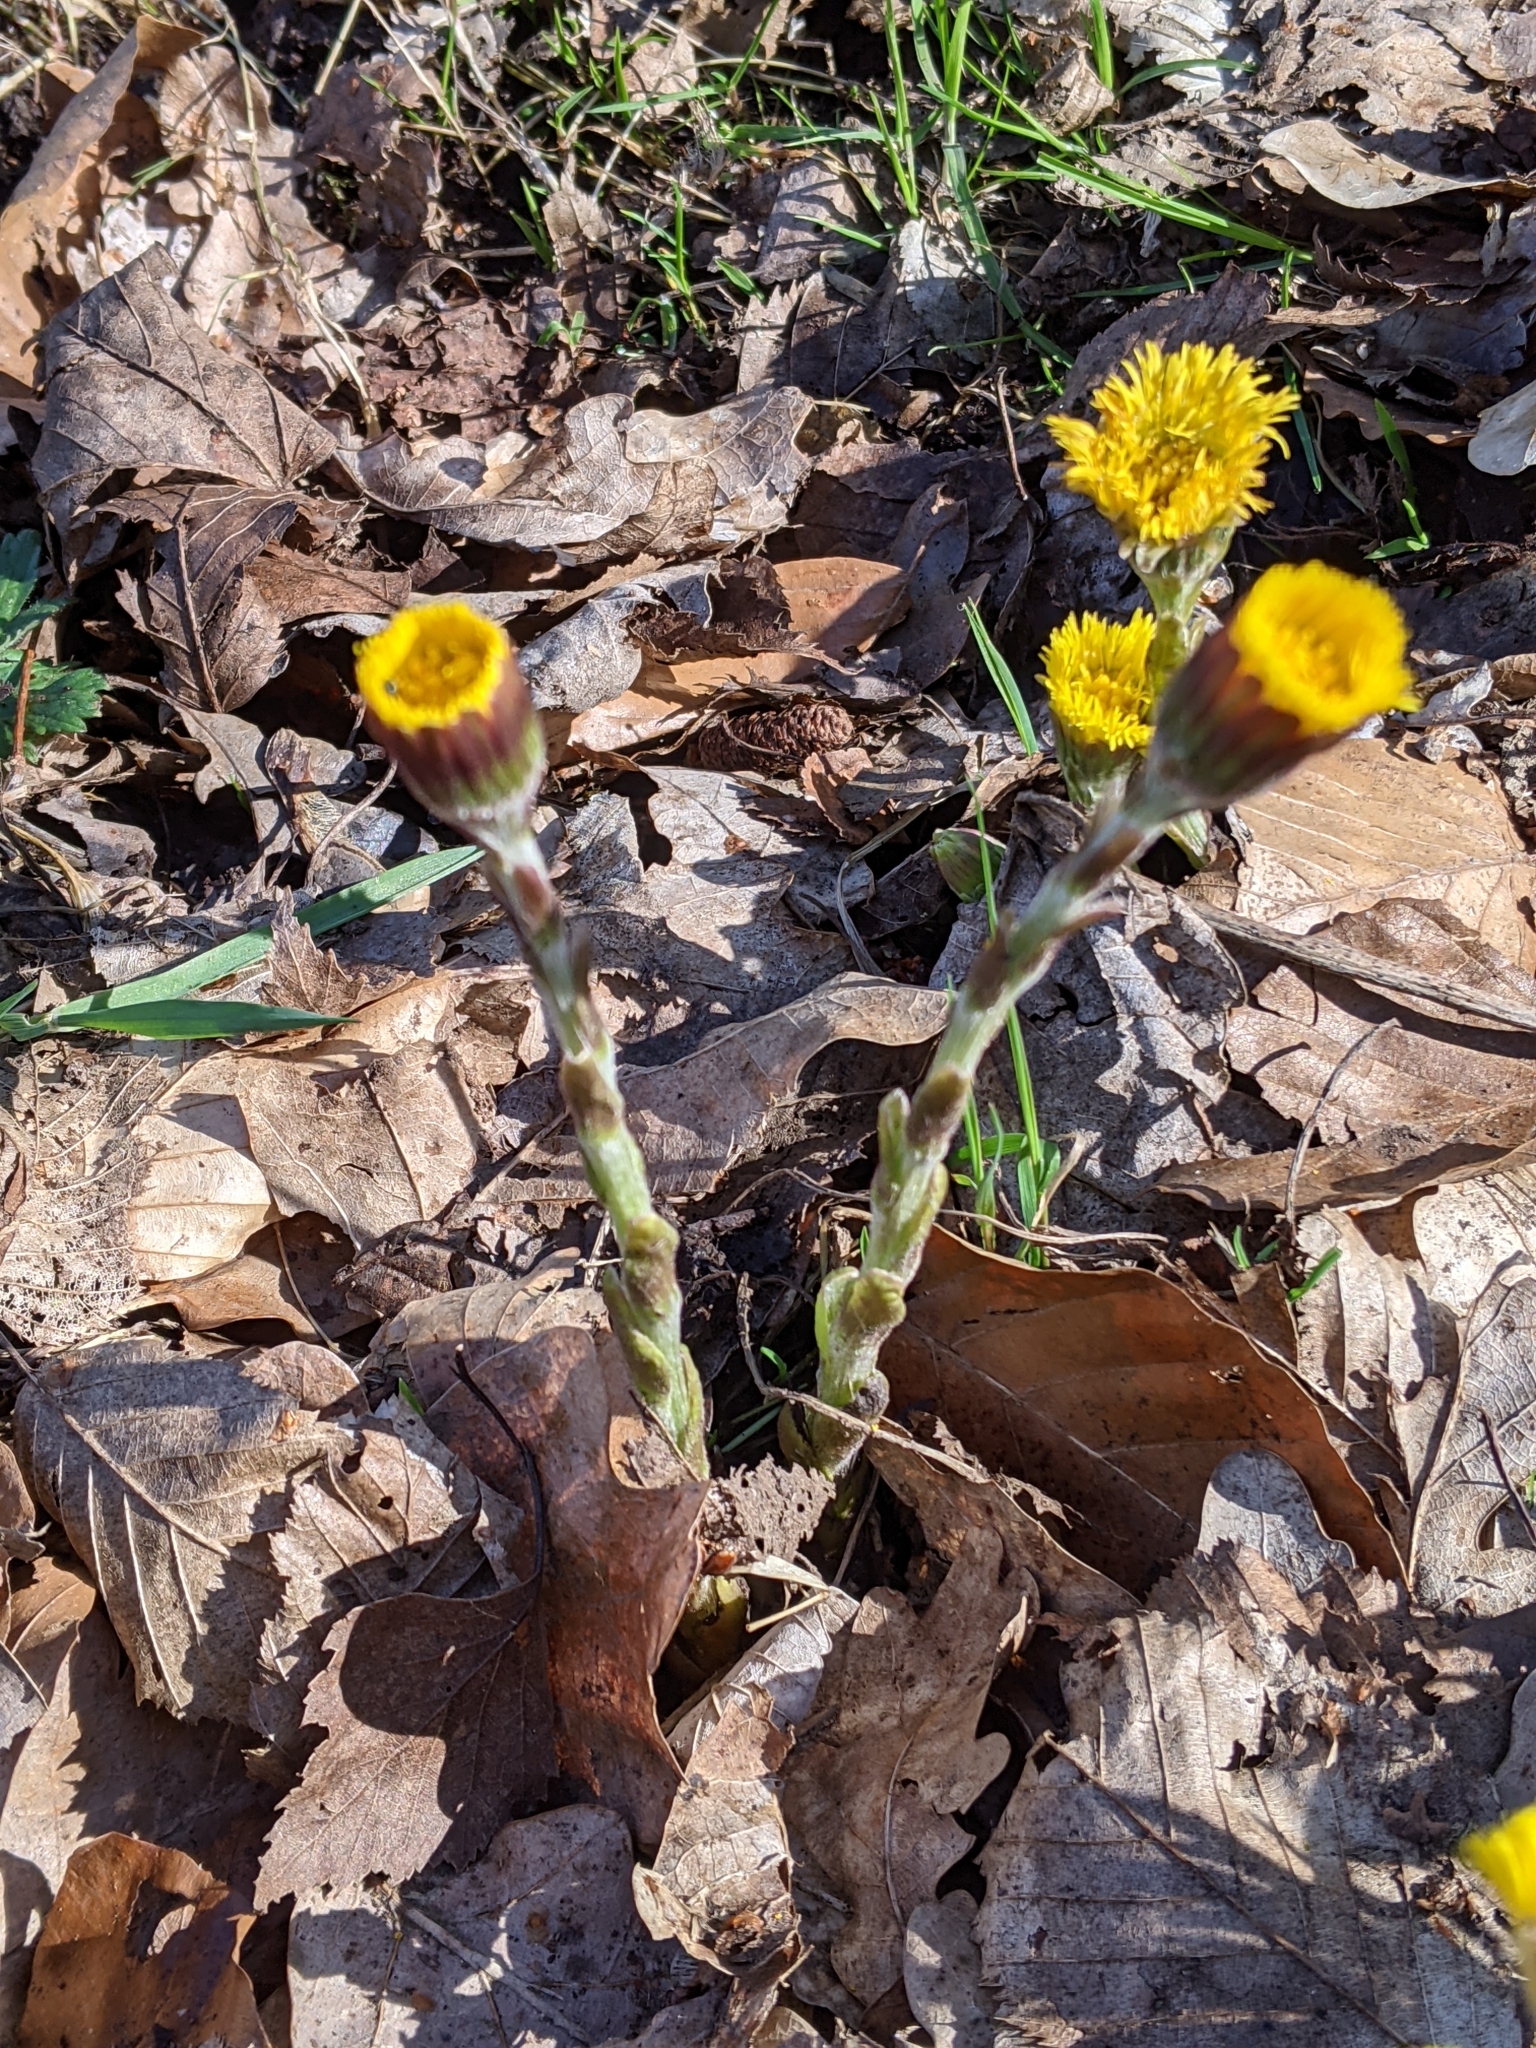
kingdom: Plantae
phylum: Tracheophyta
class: Magnoliopsida
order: Asterales
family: Asteraceae
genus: Tussilago
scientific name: Tussilago farfara
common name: Coltsfoot
